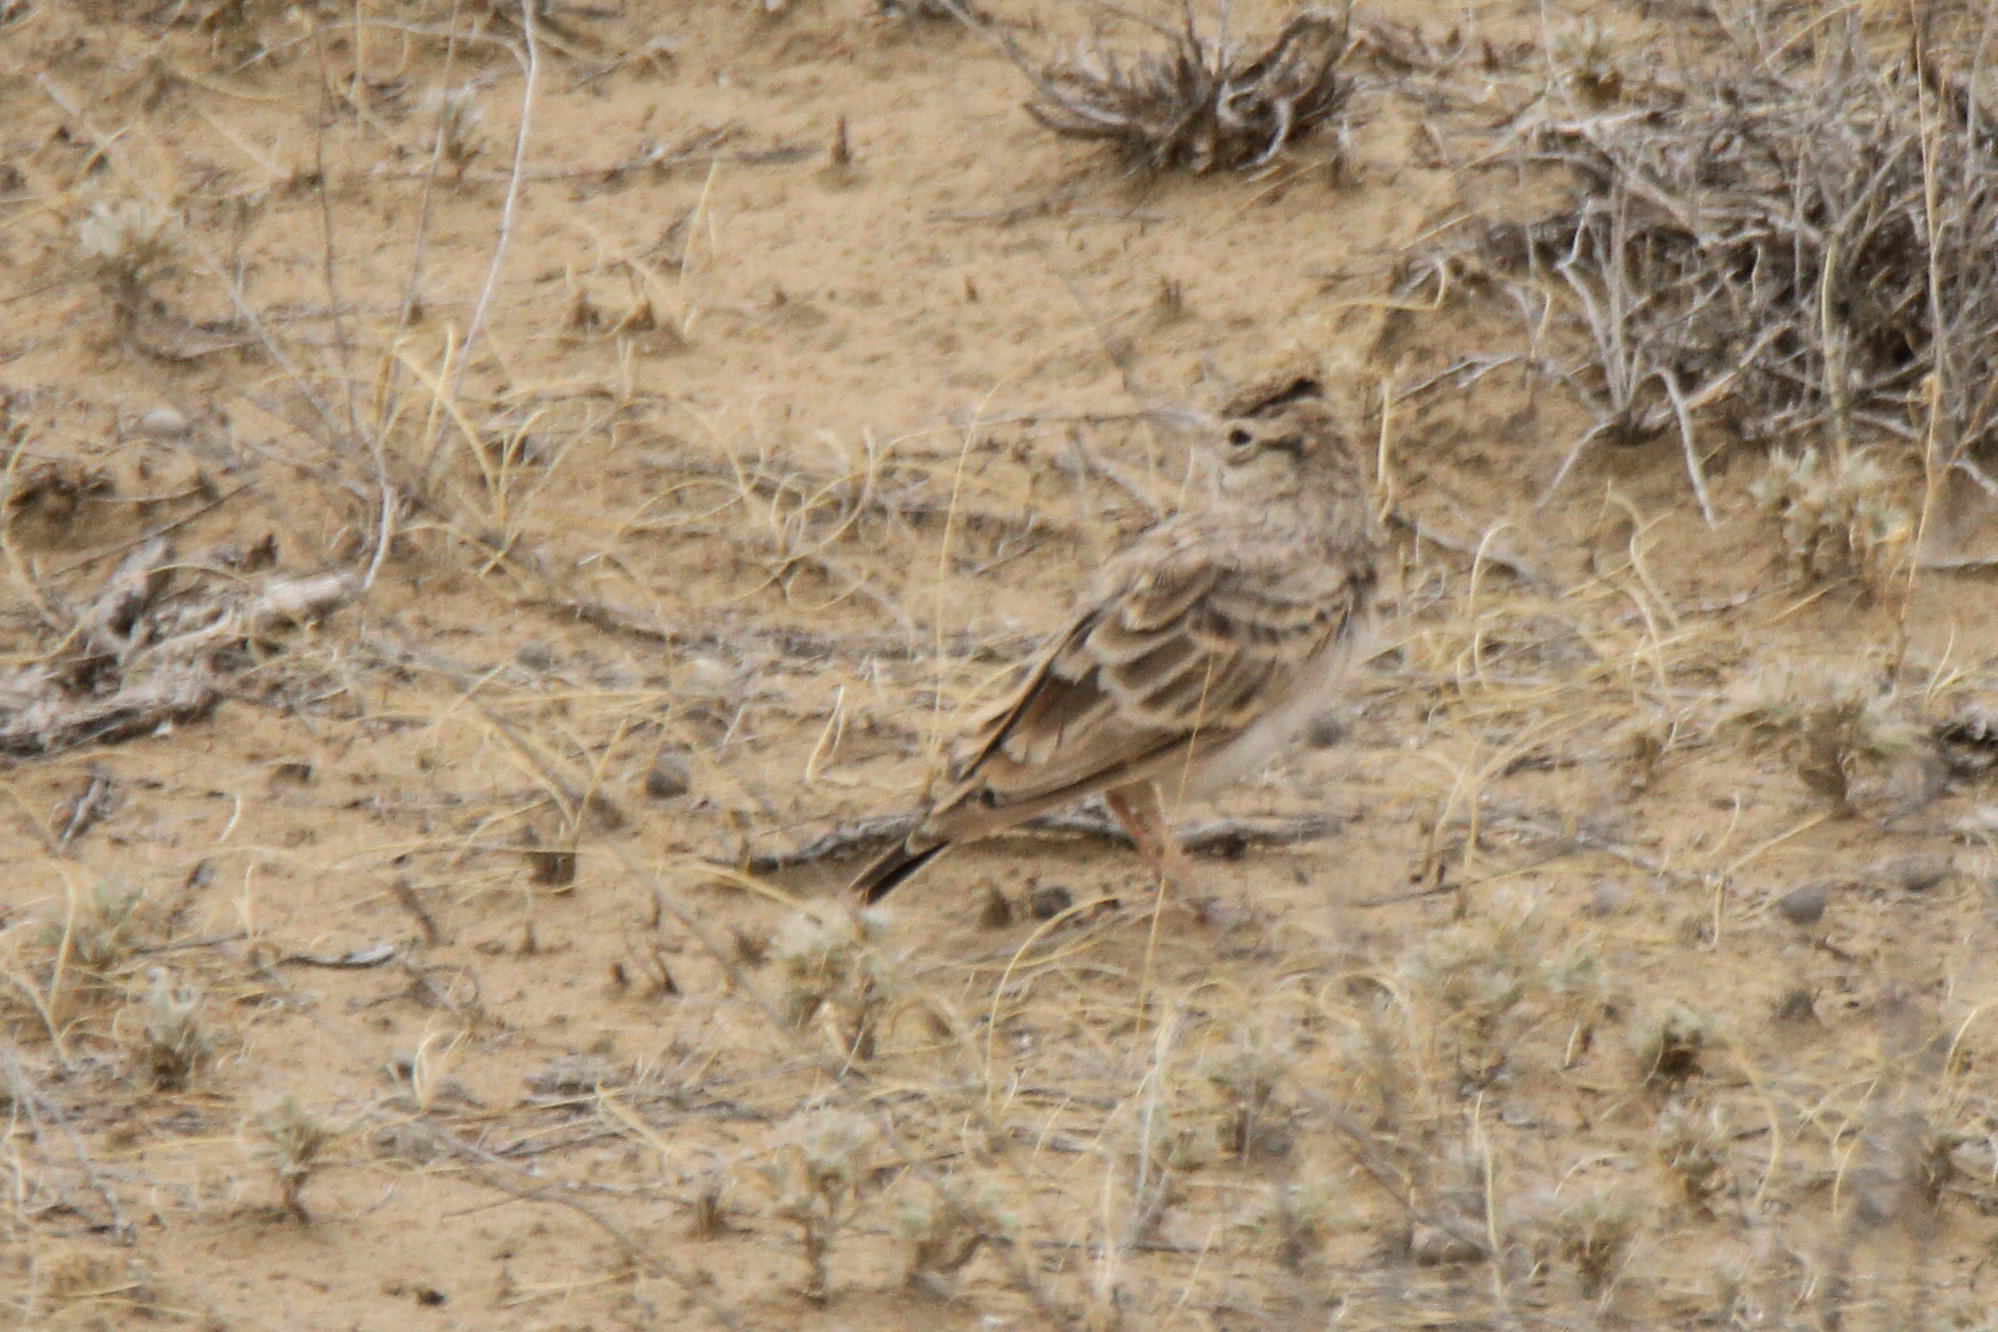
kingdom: Animalia
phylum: Chordata
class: Aves
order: Passeriformes
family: Alaudidae
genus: Galerida
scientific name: Galerida cristata
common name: Crested lark
